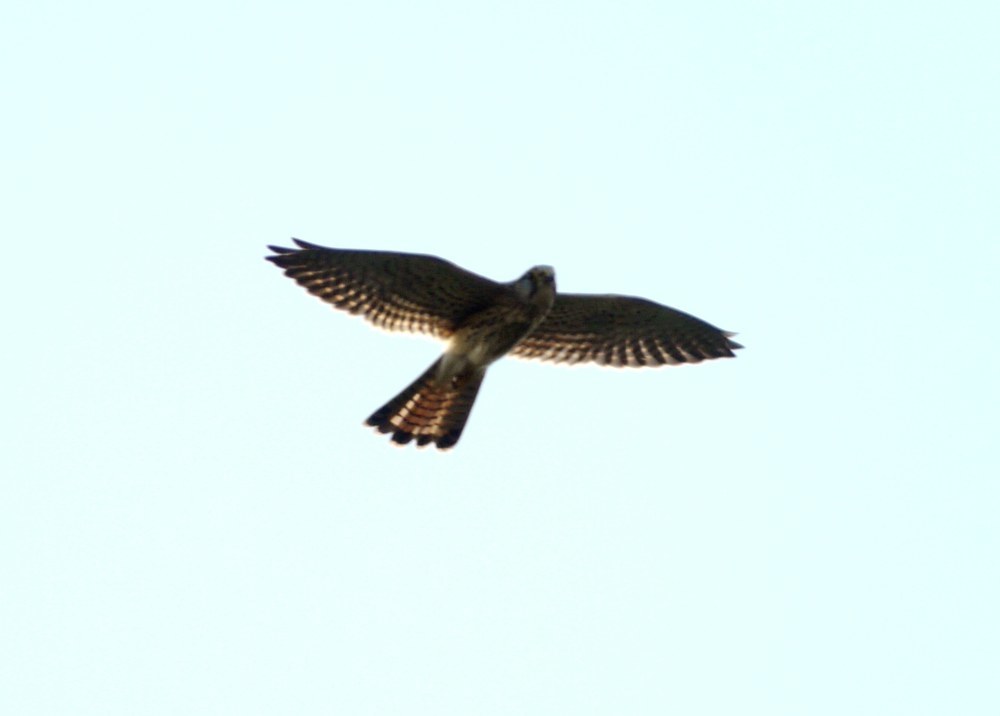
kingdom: Animalia
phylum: Chordata
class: Aves
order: Falconiformes
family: Falconidae
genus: Falco
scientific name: Falco tinnunculus
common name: Common kestrel
